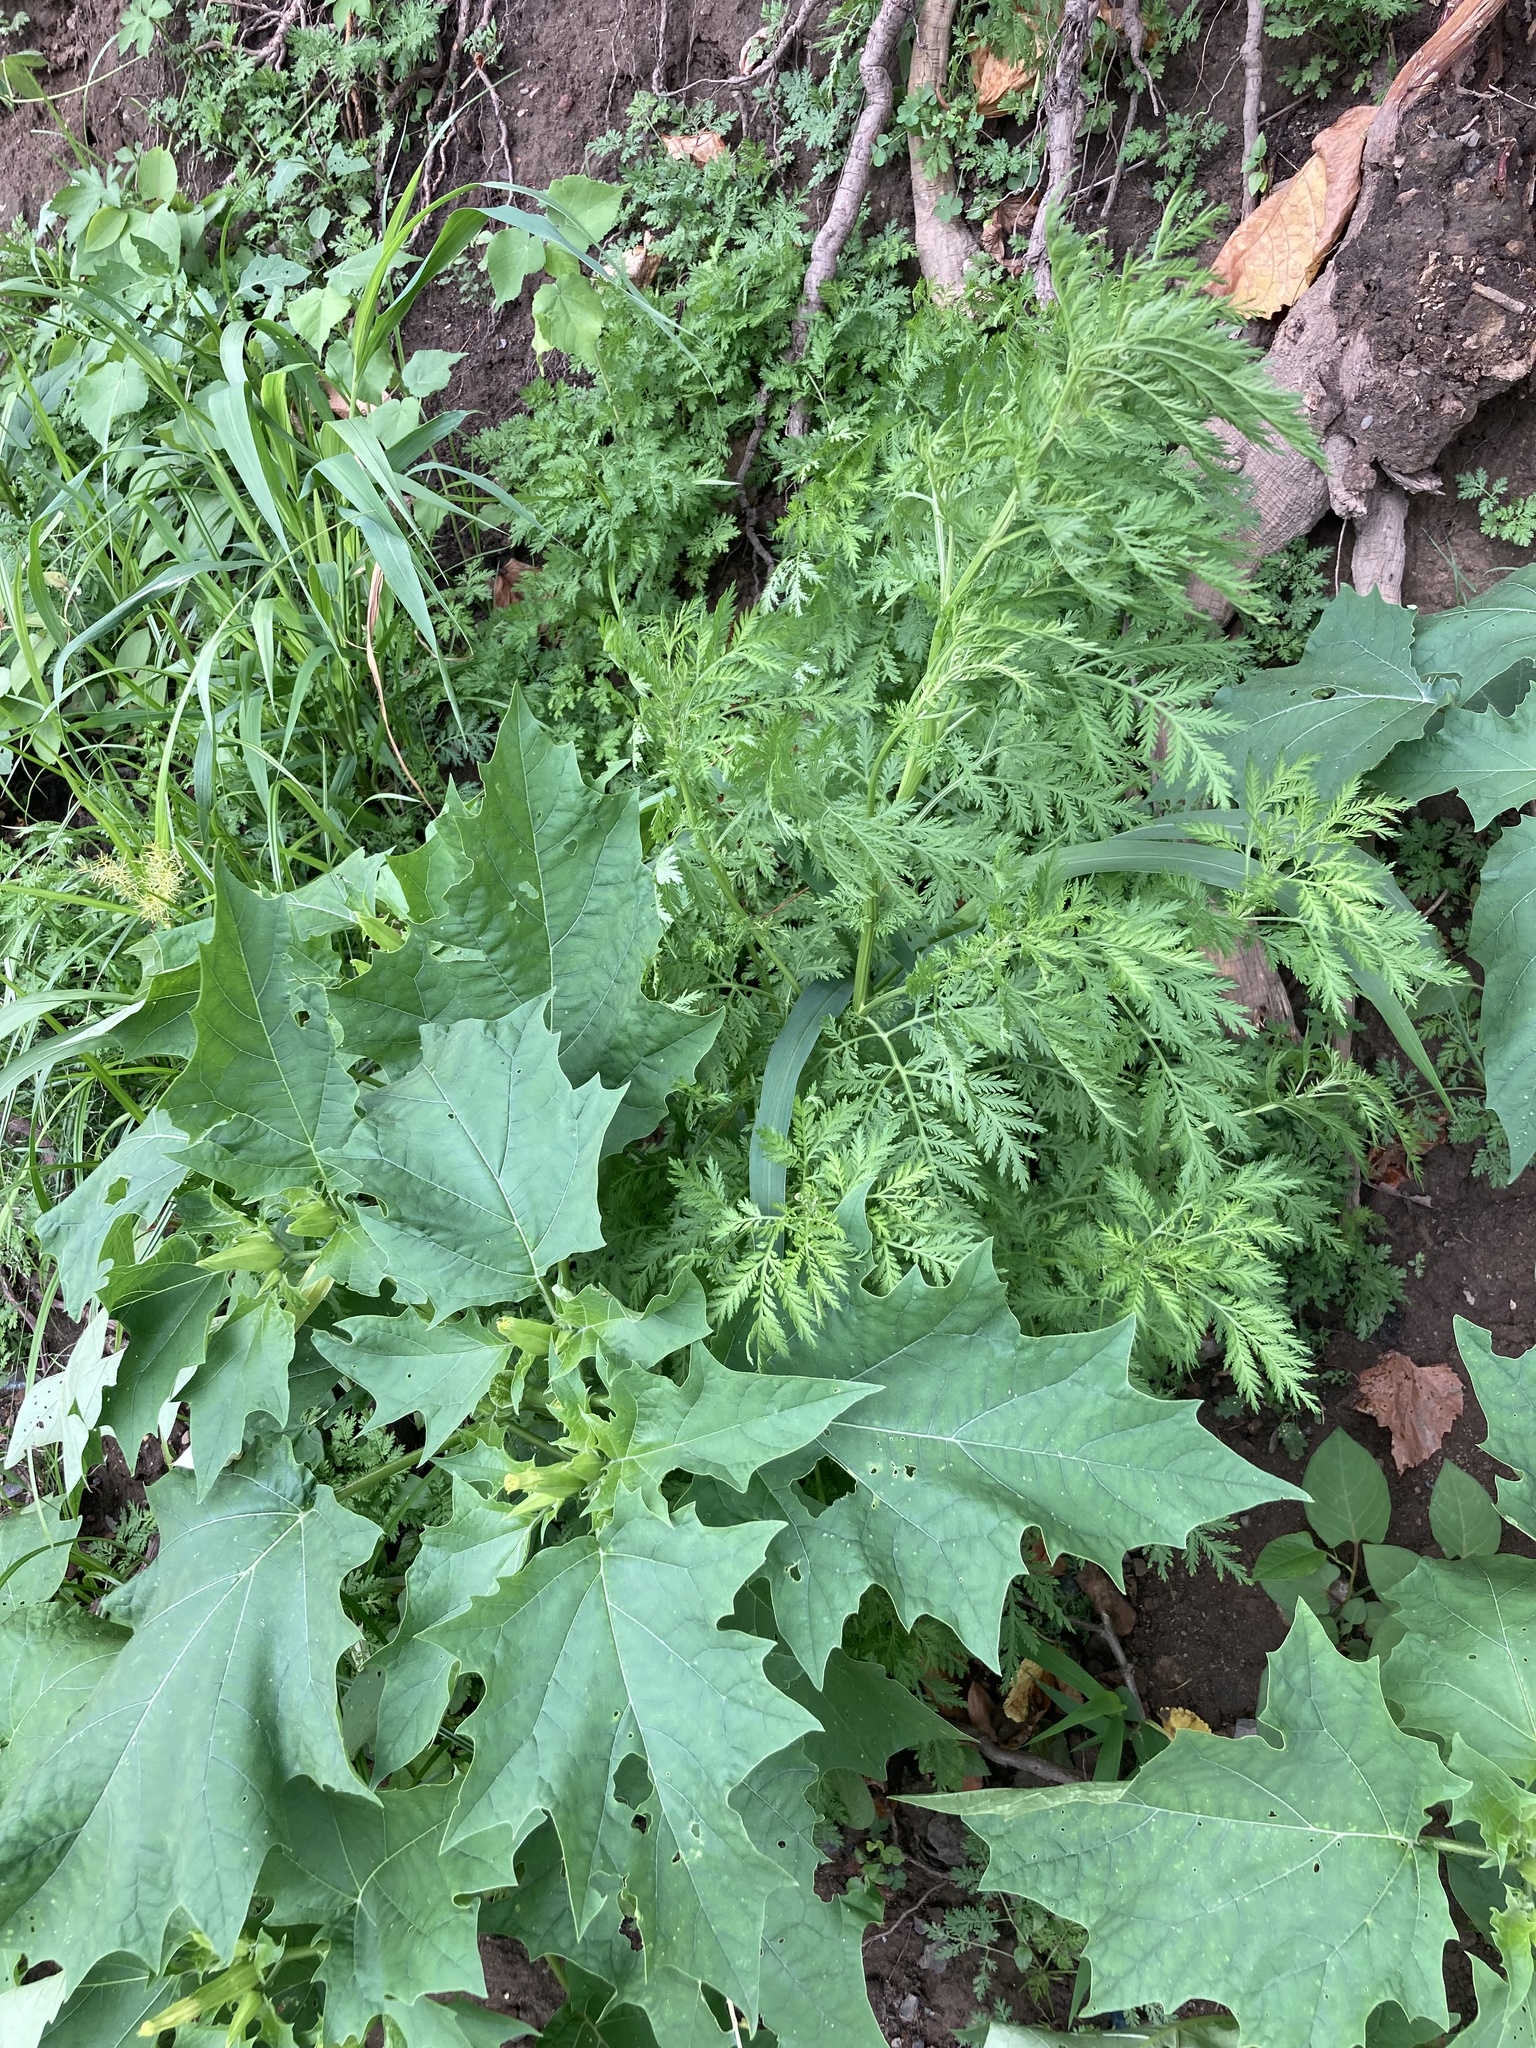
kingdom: Plantae
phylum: Tracheophyta
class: Magnoliopsida
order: Asterales
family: Asteraceae
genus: Artemisia
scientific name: Artemisia annua
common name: Sweet sagewort
